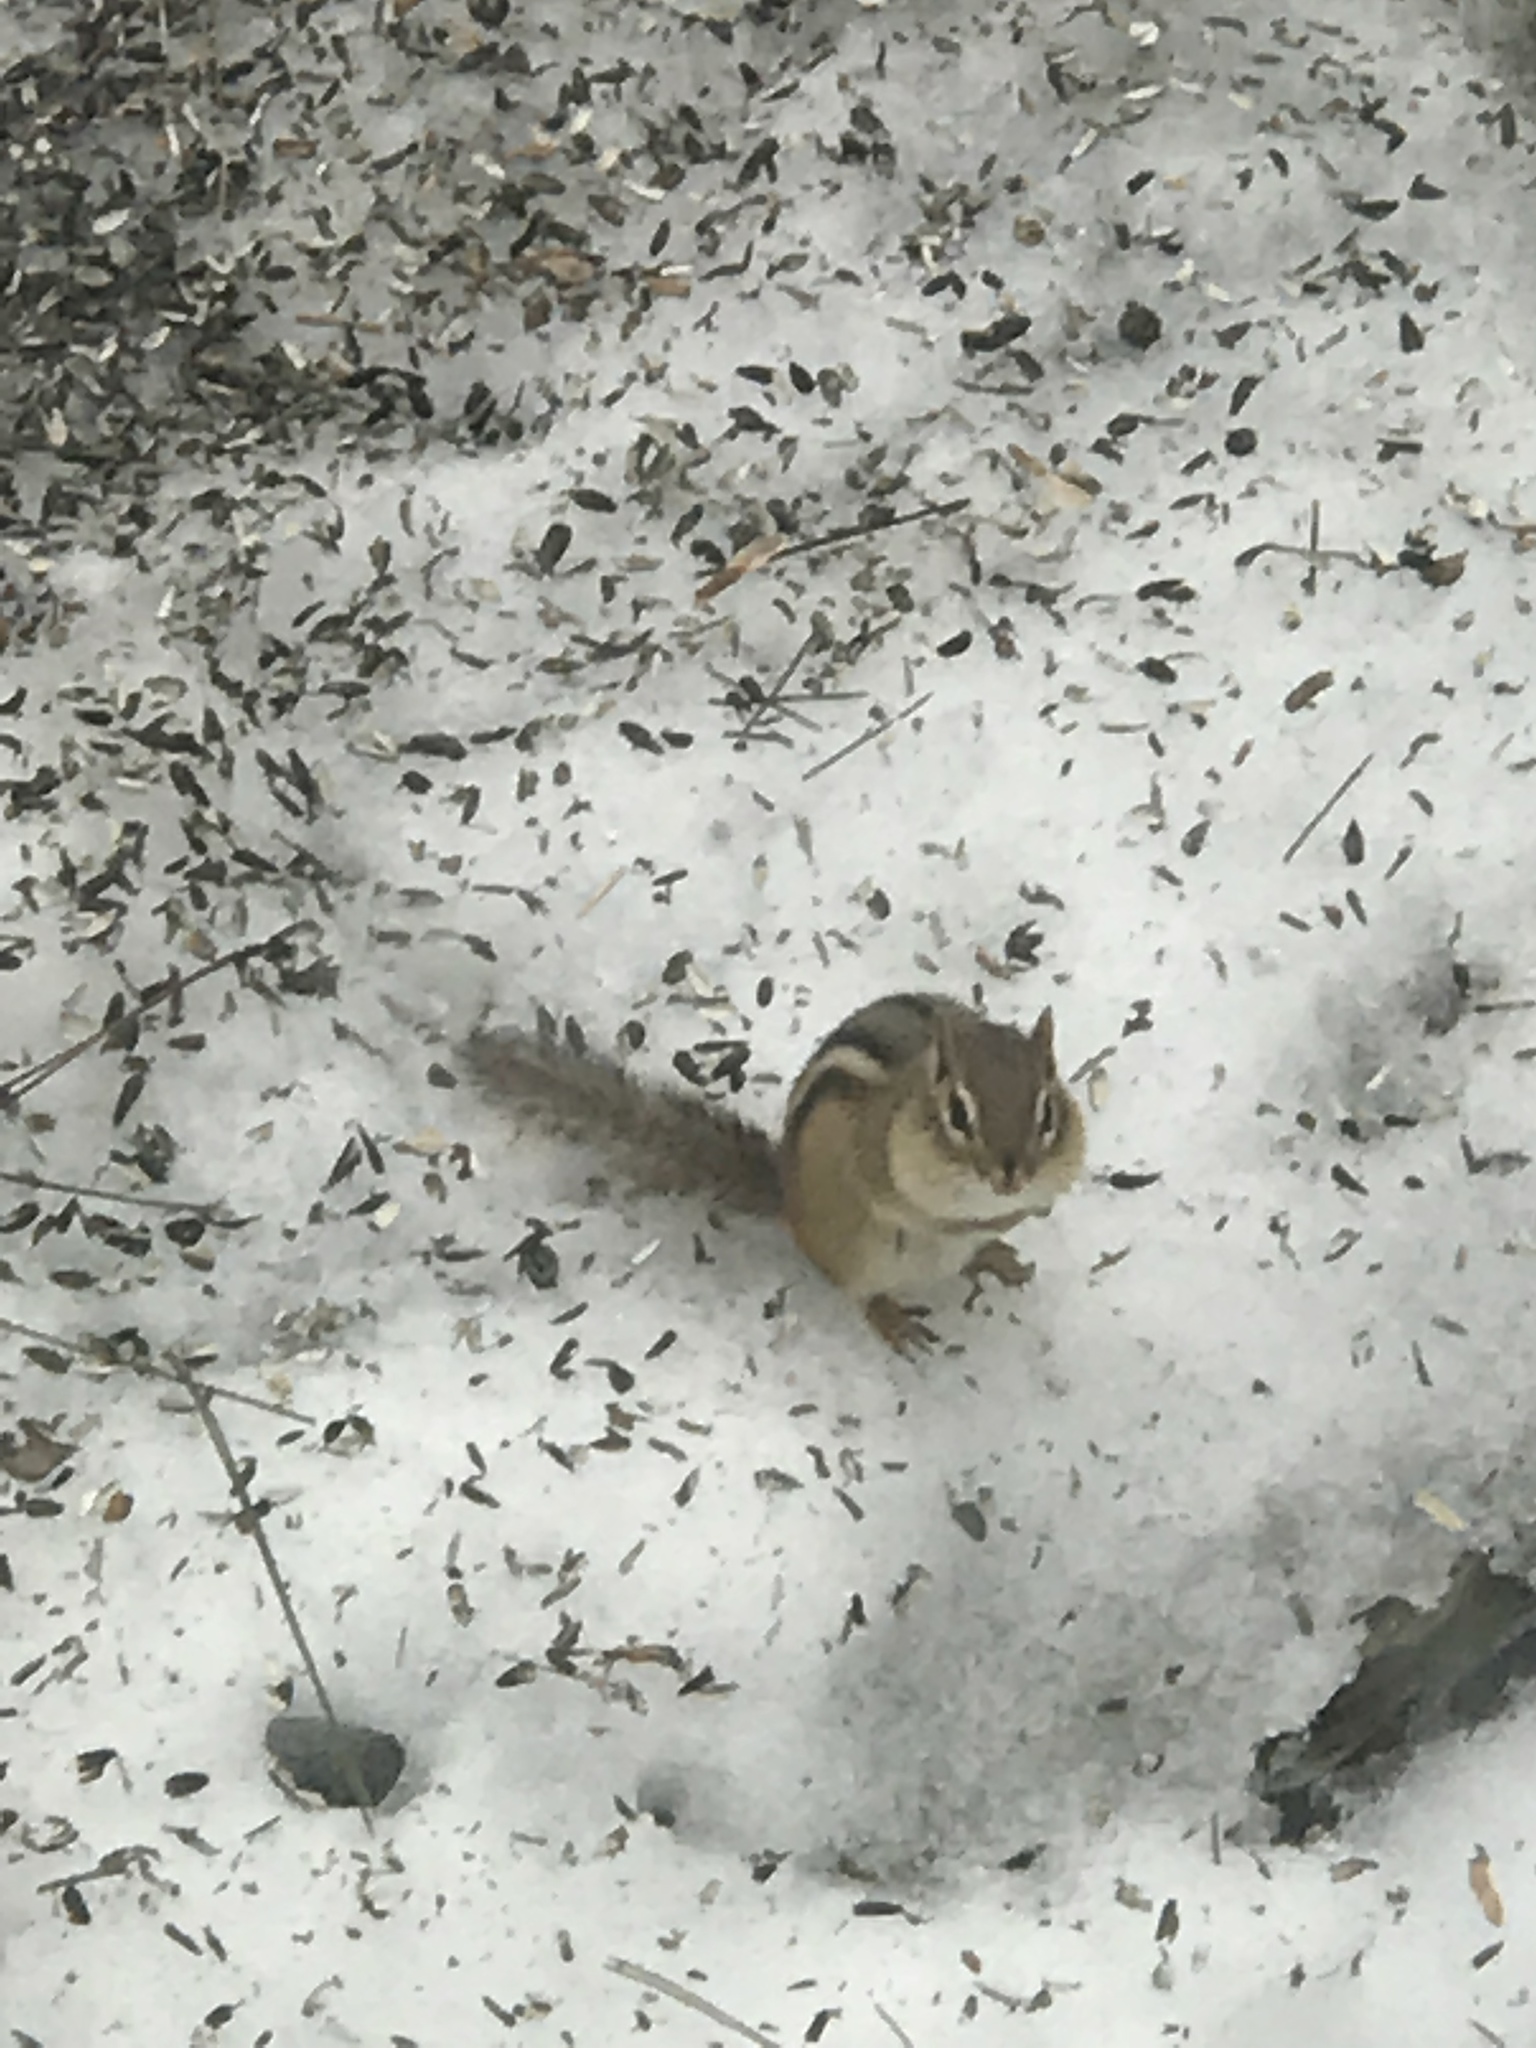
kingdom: Animalia
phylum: Chordata
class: Mammalia
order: Rodentia
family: Sciuridae
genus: Tamias
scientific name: Tamias striatus
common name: Eastern chipmunk
